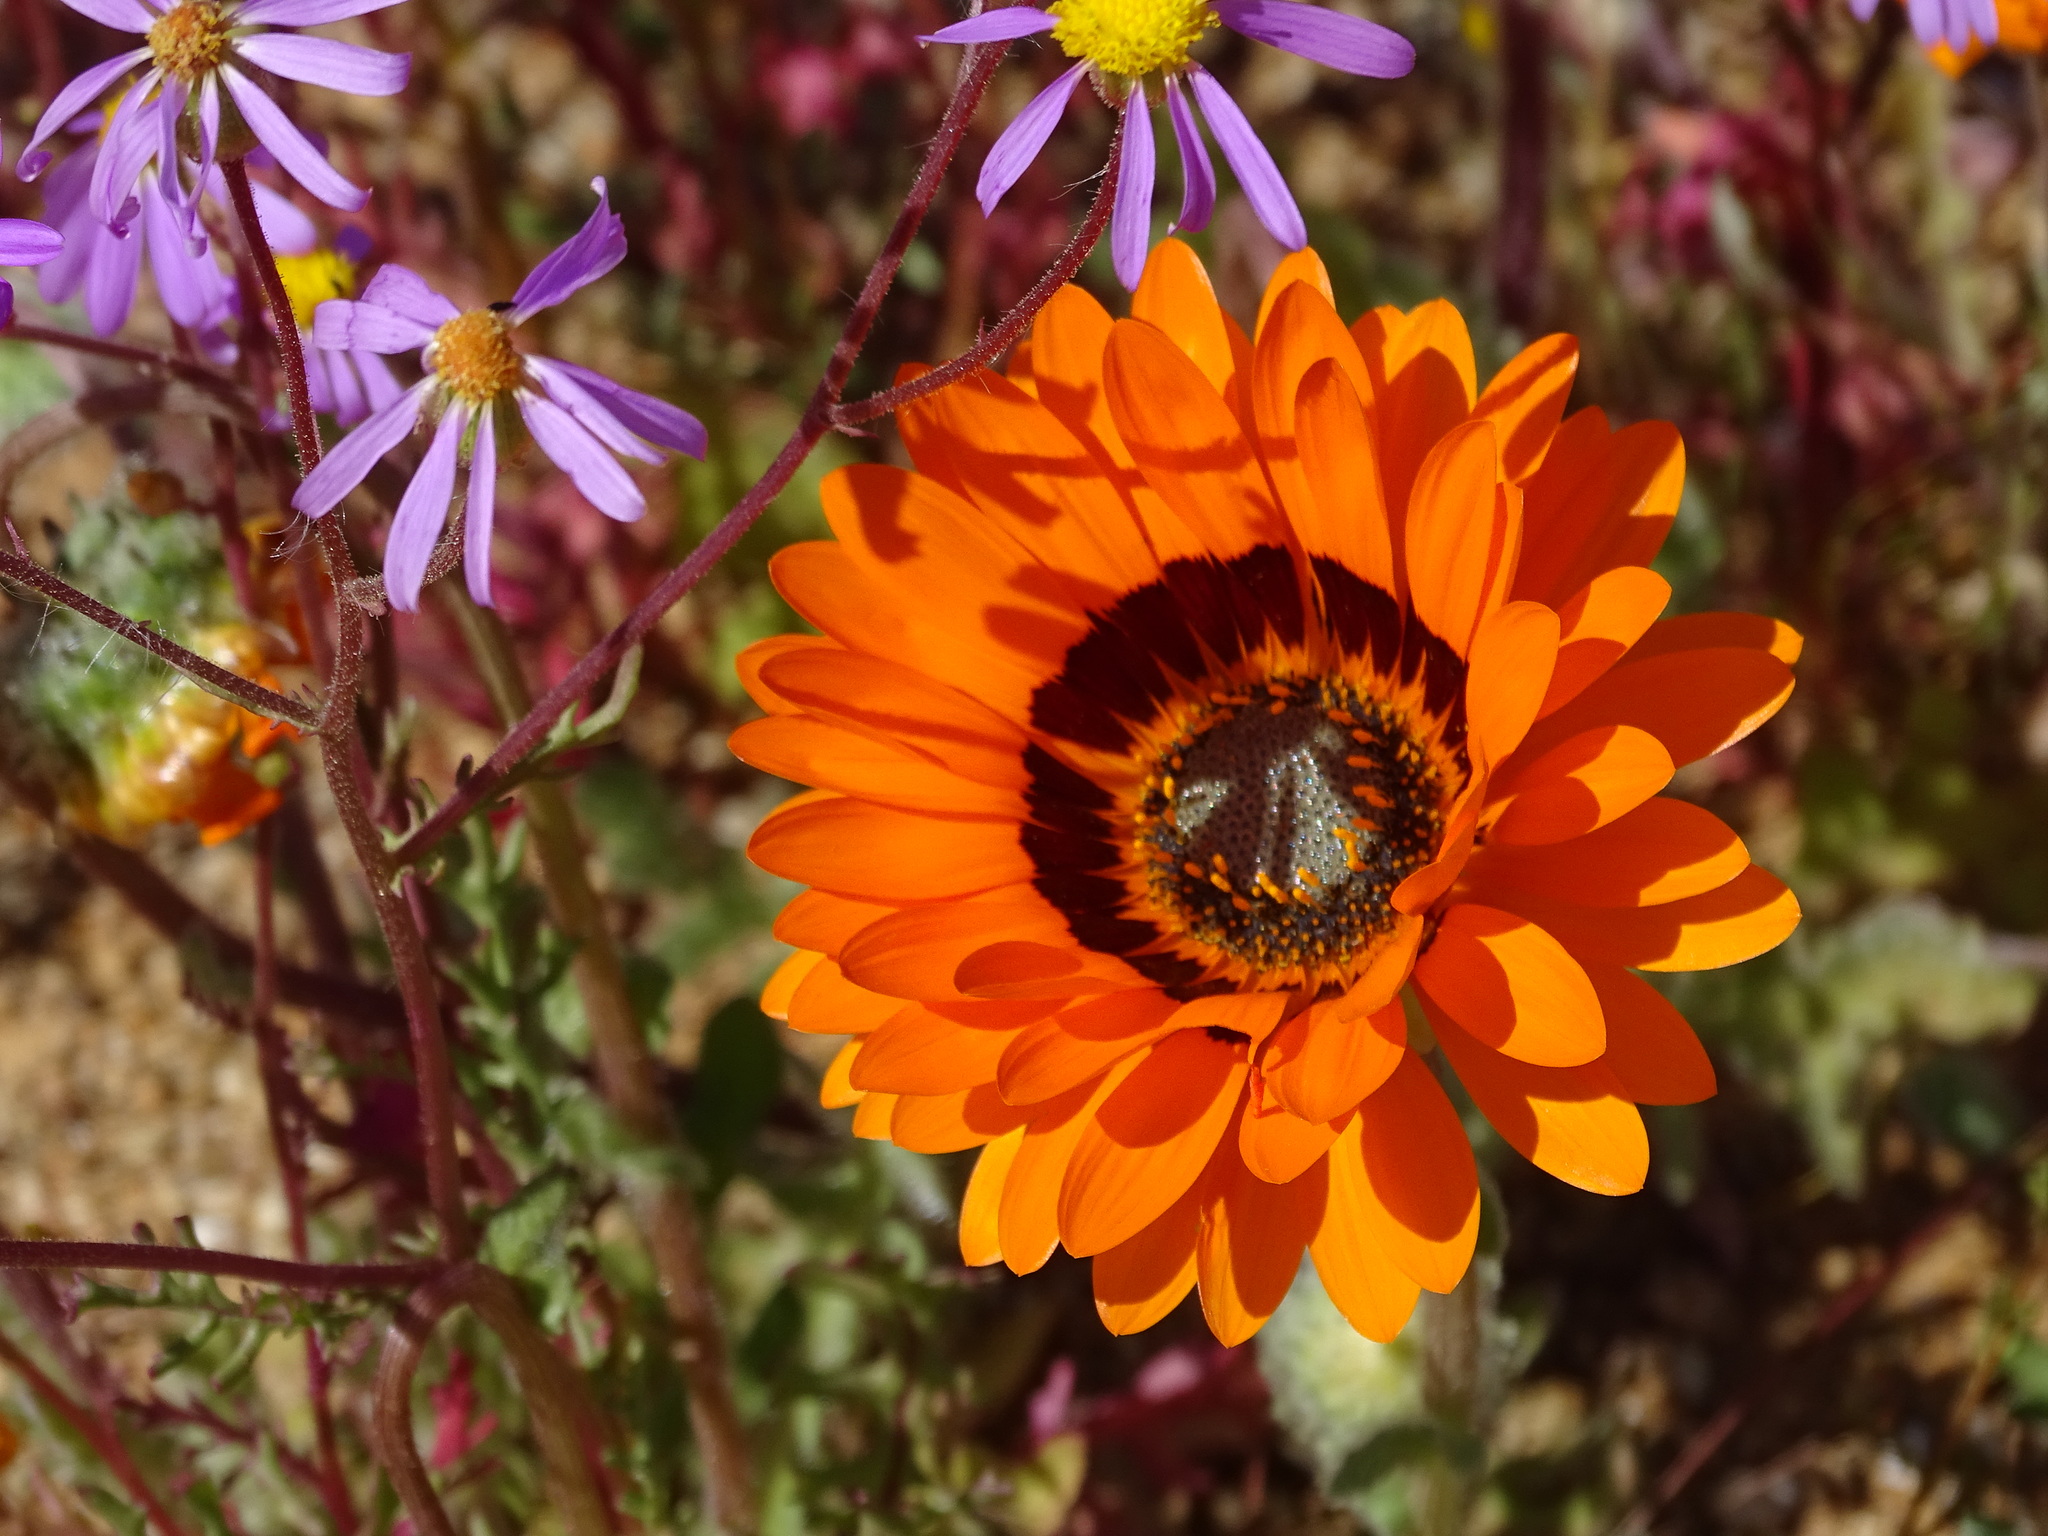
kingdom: Plantae
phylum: Tracheophyta
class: Magnoliopsida
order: Asterales
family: Asteraceae
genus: Arctotis
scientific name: Arctotis fastuosa
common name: Monarch of the veld
